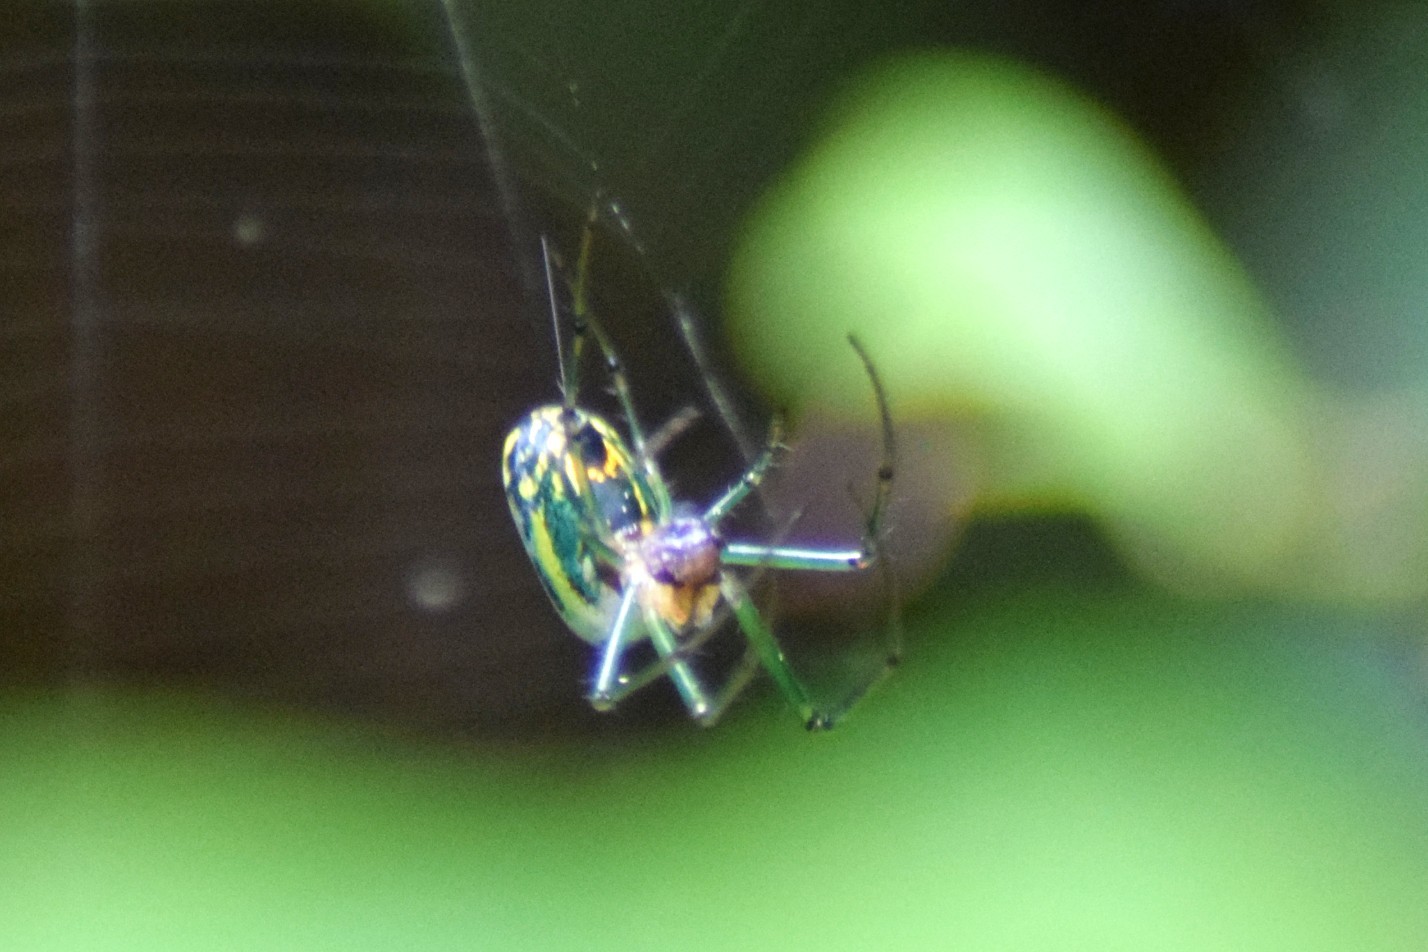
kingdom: Animalia
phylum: Arthropoda
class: Arachnida
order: Araneae
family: Tetragnathidae
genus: Leucauge
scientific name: Leucauge venusta
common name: Longjawed orb weavers
